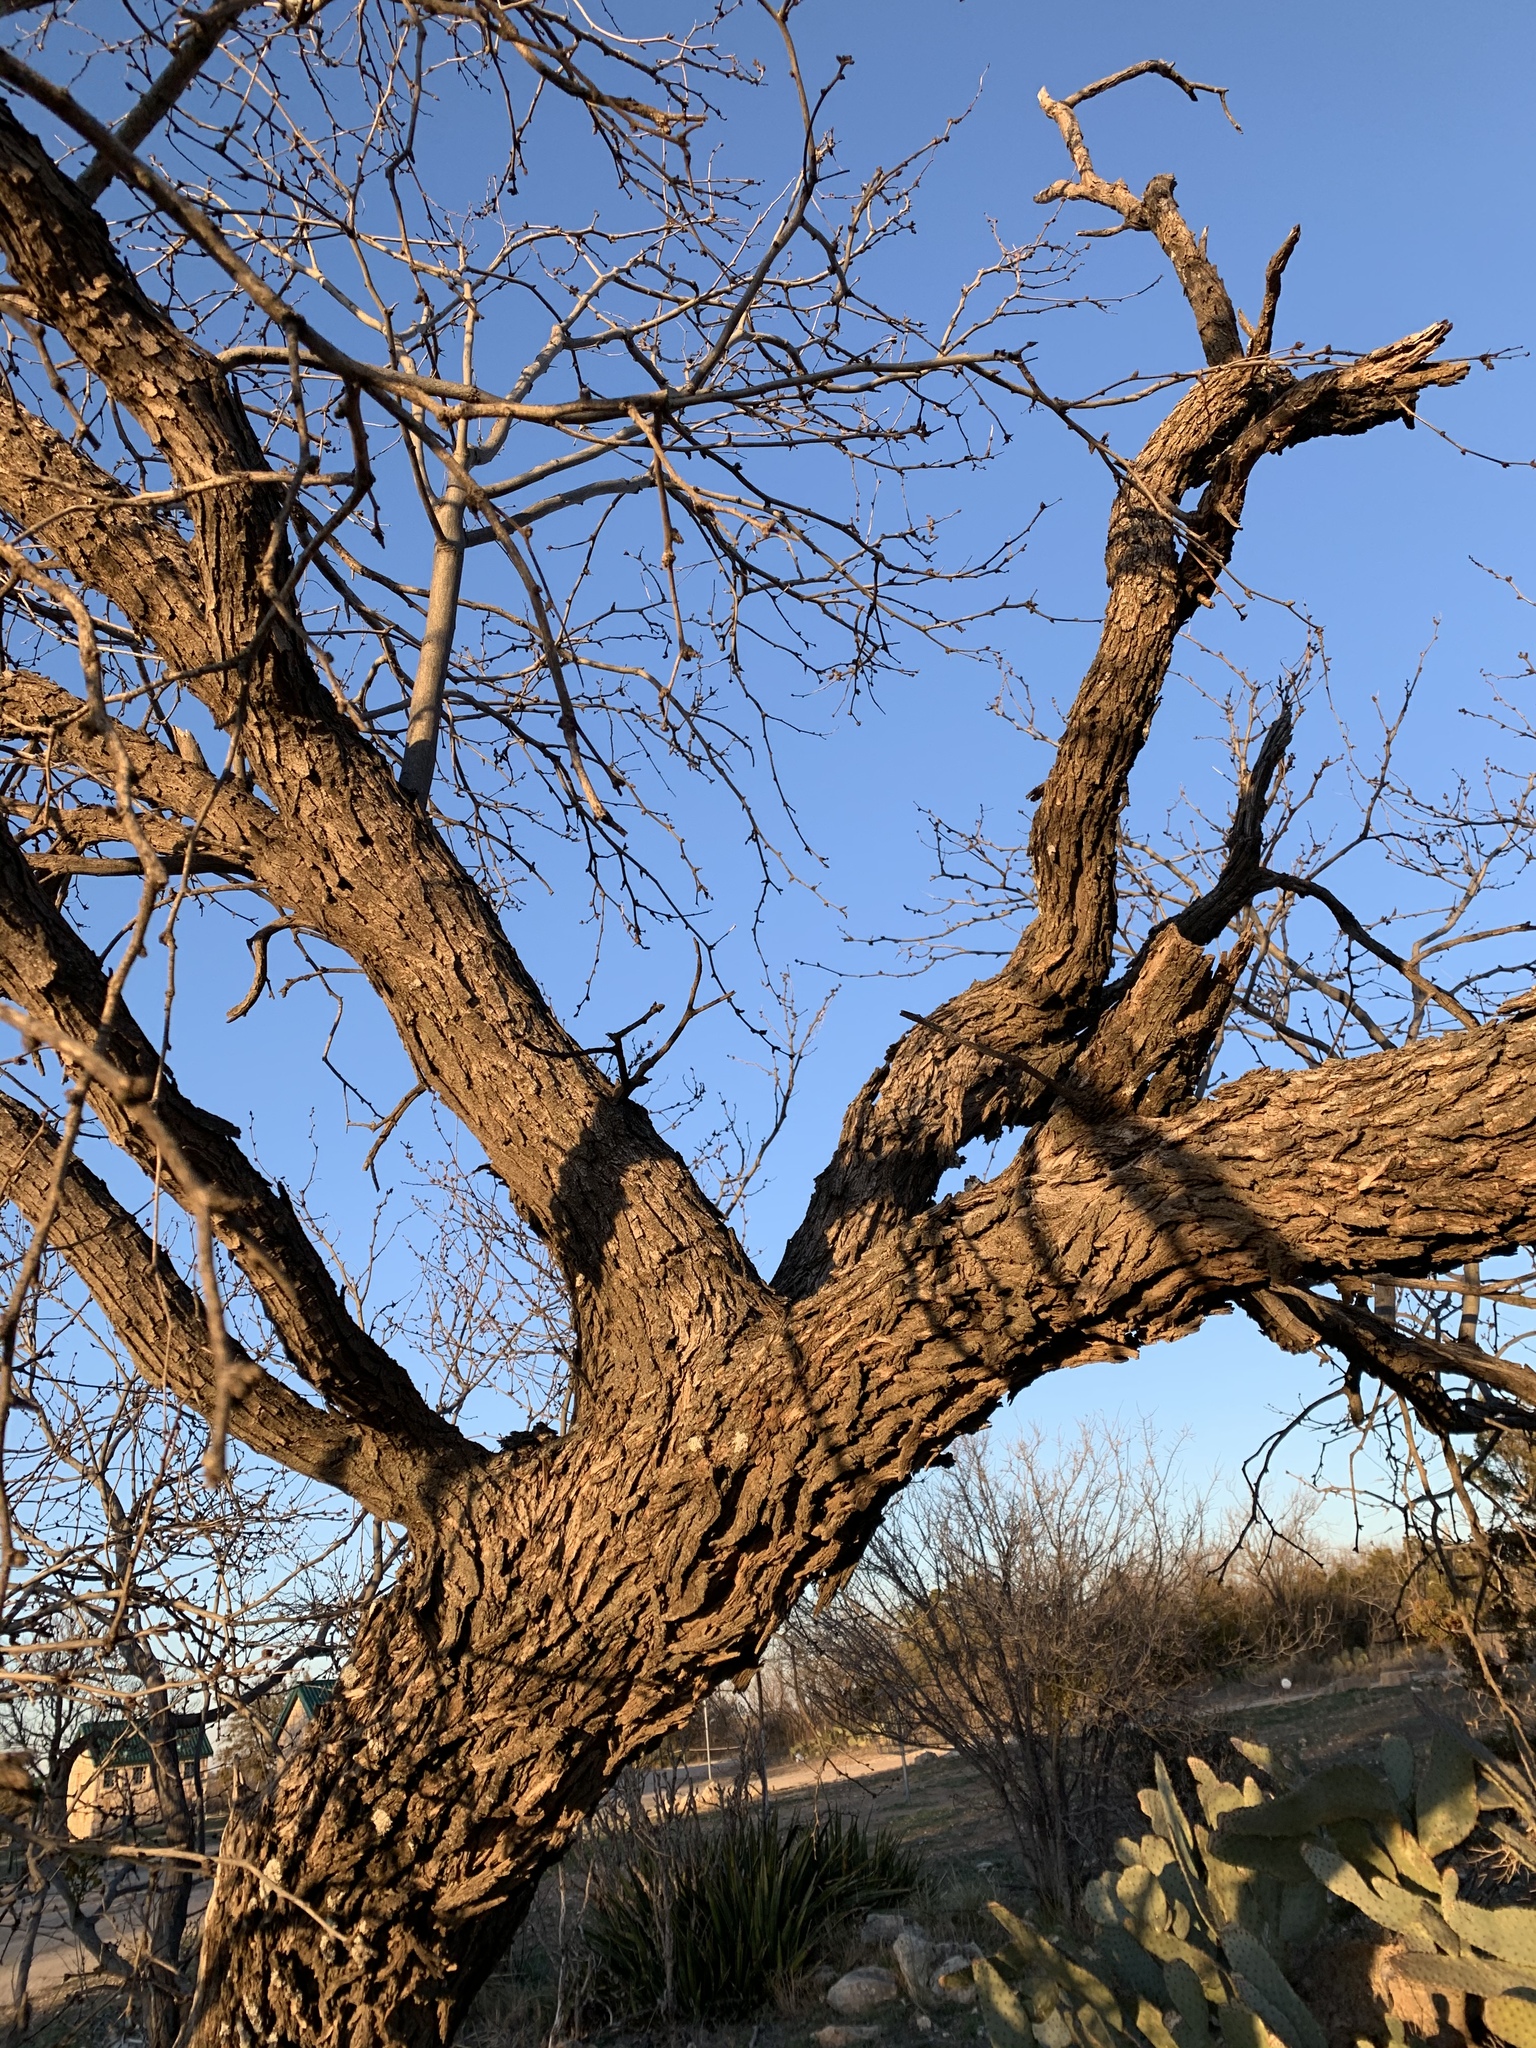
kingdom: Plantae
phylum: Tracheophyta
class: Magnoliopsida
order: Fabales
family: Fabaceae
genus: Prosopis
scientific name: Prosopis glandulosa
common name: Honey mesquite
